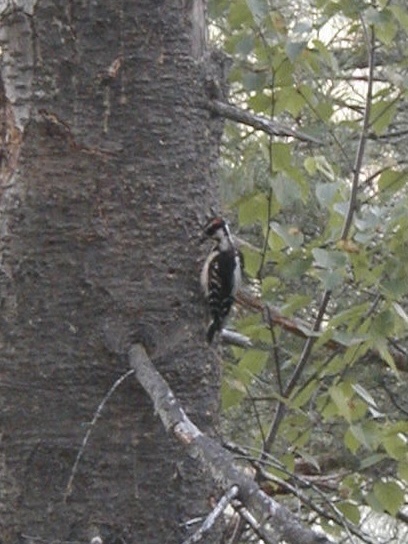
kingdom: Animalia
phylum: Chordata
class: Aves
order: Piciformes
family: Picidae
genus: Leuconotopicus
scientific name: Leuconotopicus villosus
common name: Hairy woodpecker
